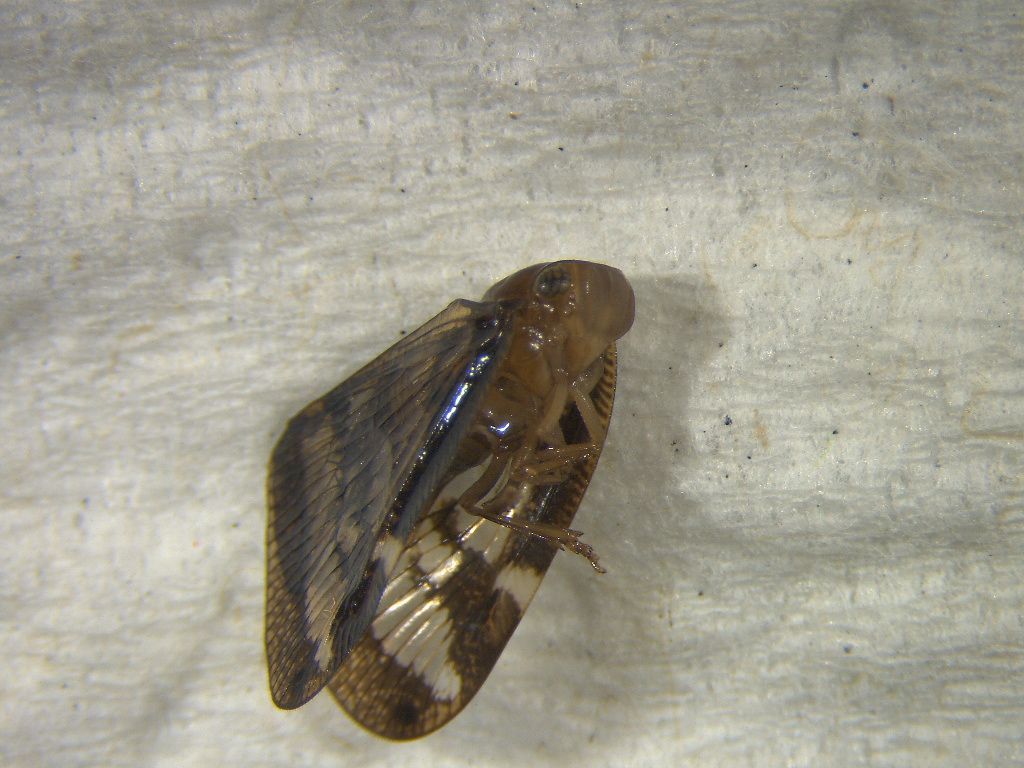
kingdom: Animalia
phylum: Arthropoda
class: Insecta
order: Hemiptera
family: Ricaniidae
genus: Scolypopa
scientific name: Scolypopa australis
